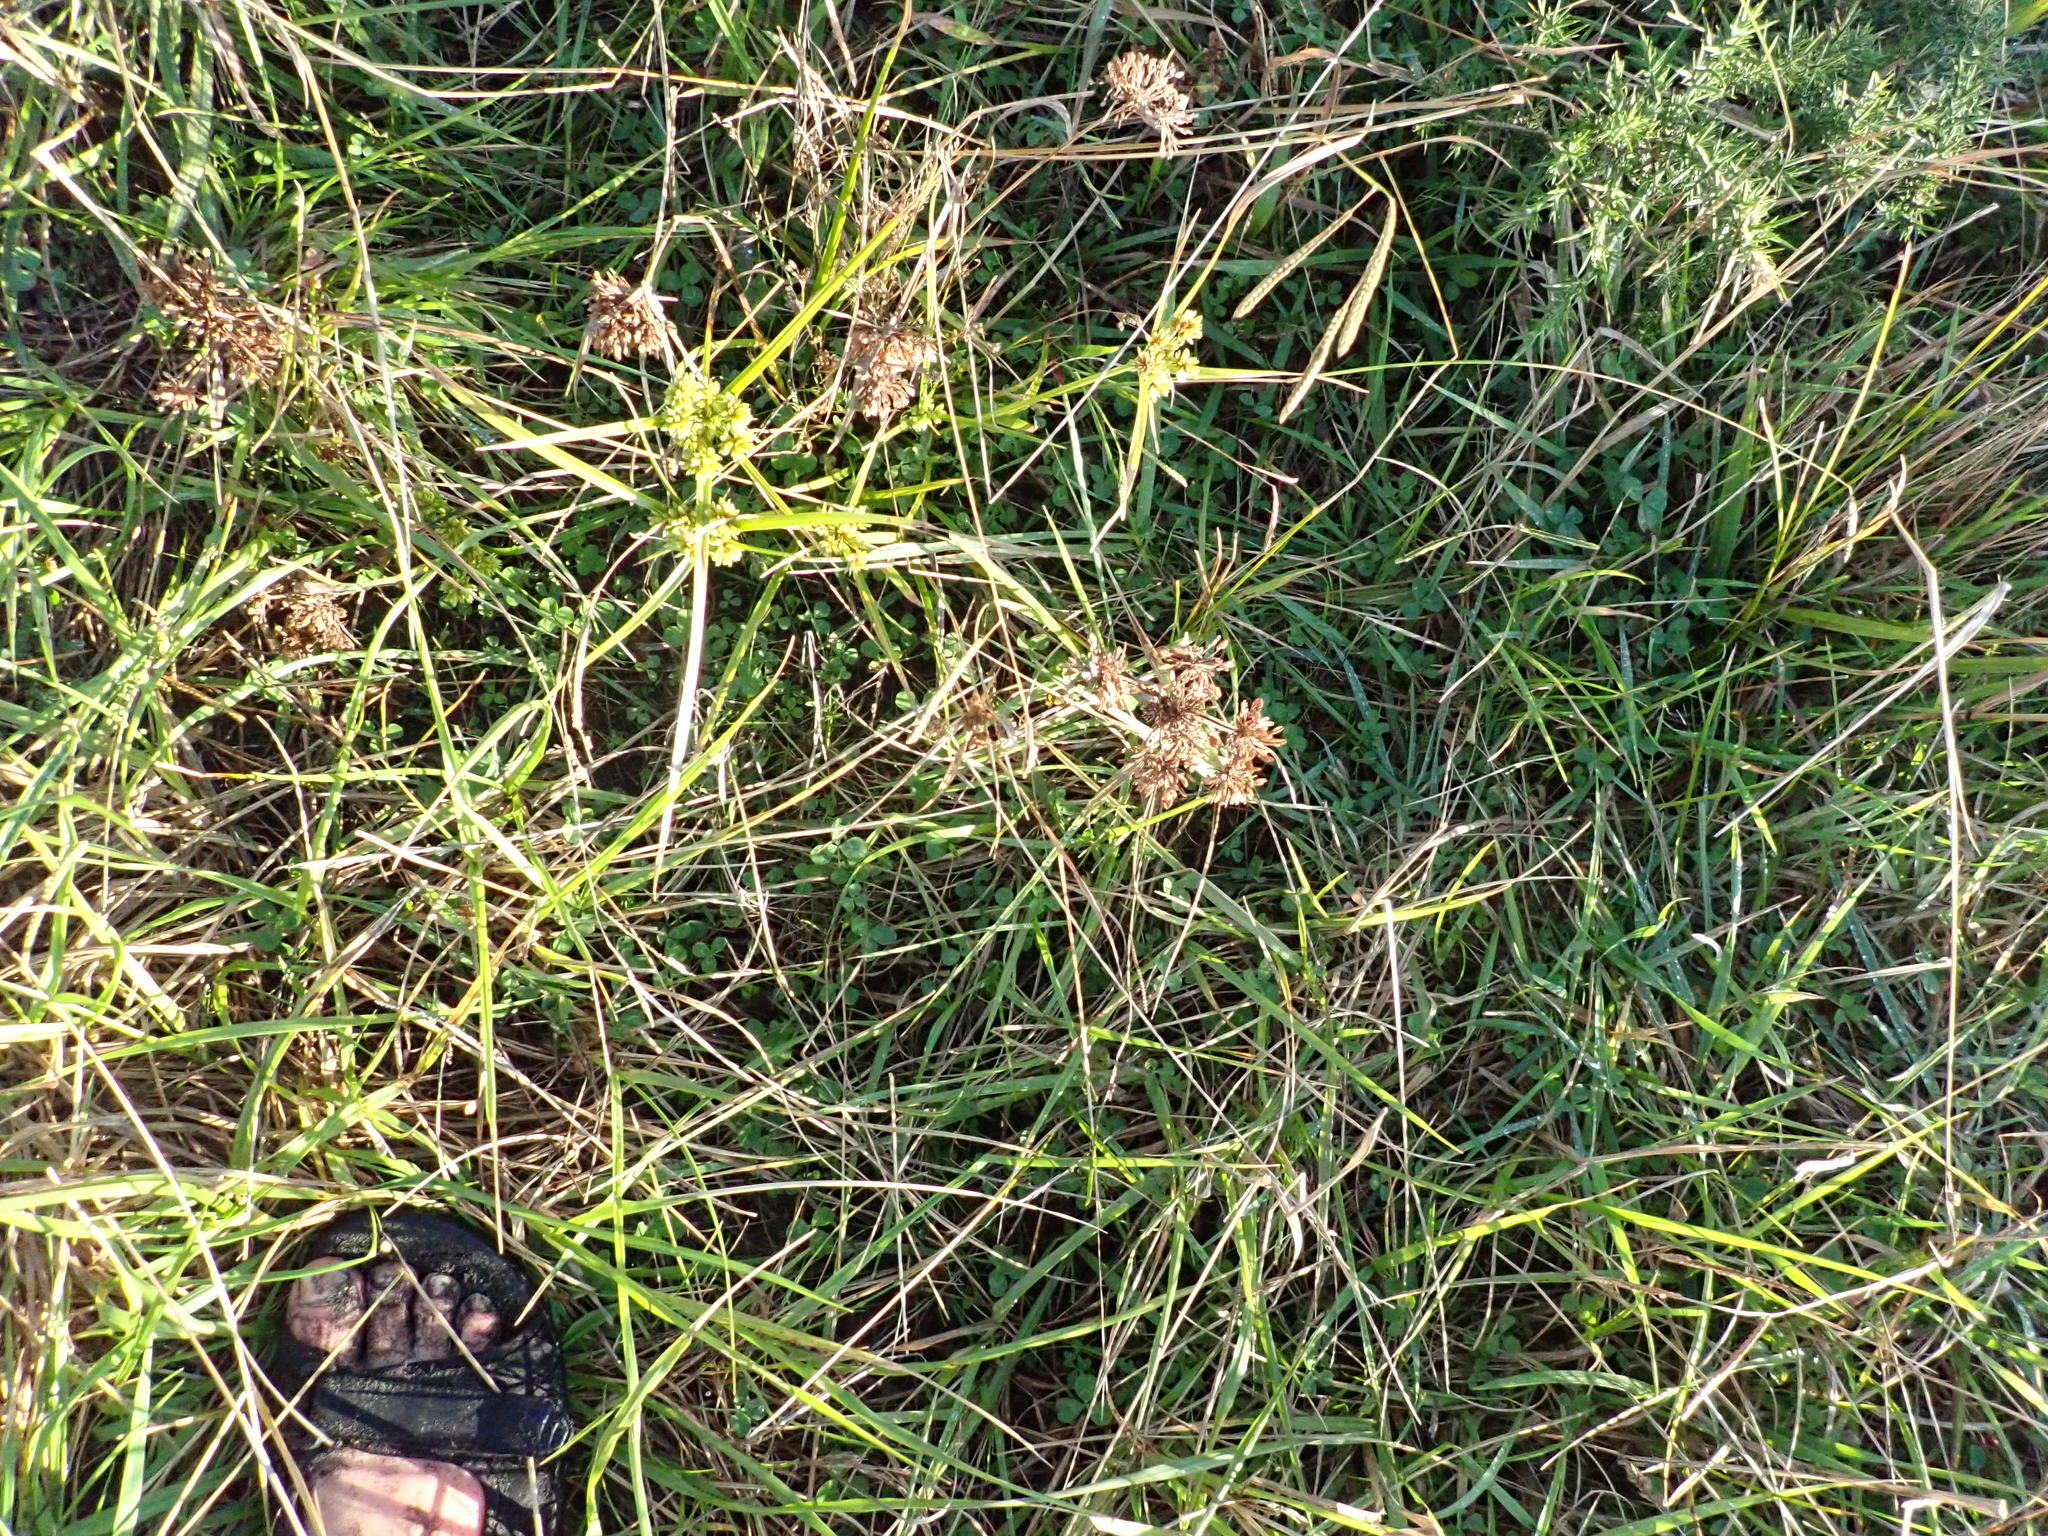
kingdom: Plantae
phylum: Tracheophyta
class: Liliopsida
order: Poales
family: Cyperaceae
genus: Cyperus
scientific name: Cyperus eragrostis
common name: Tall flatsedge
